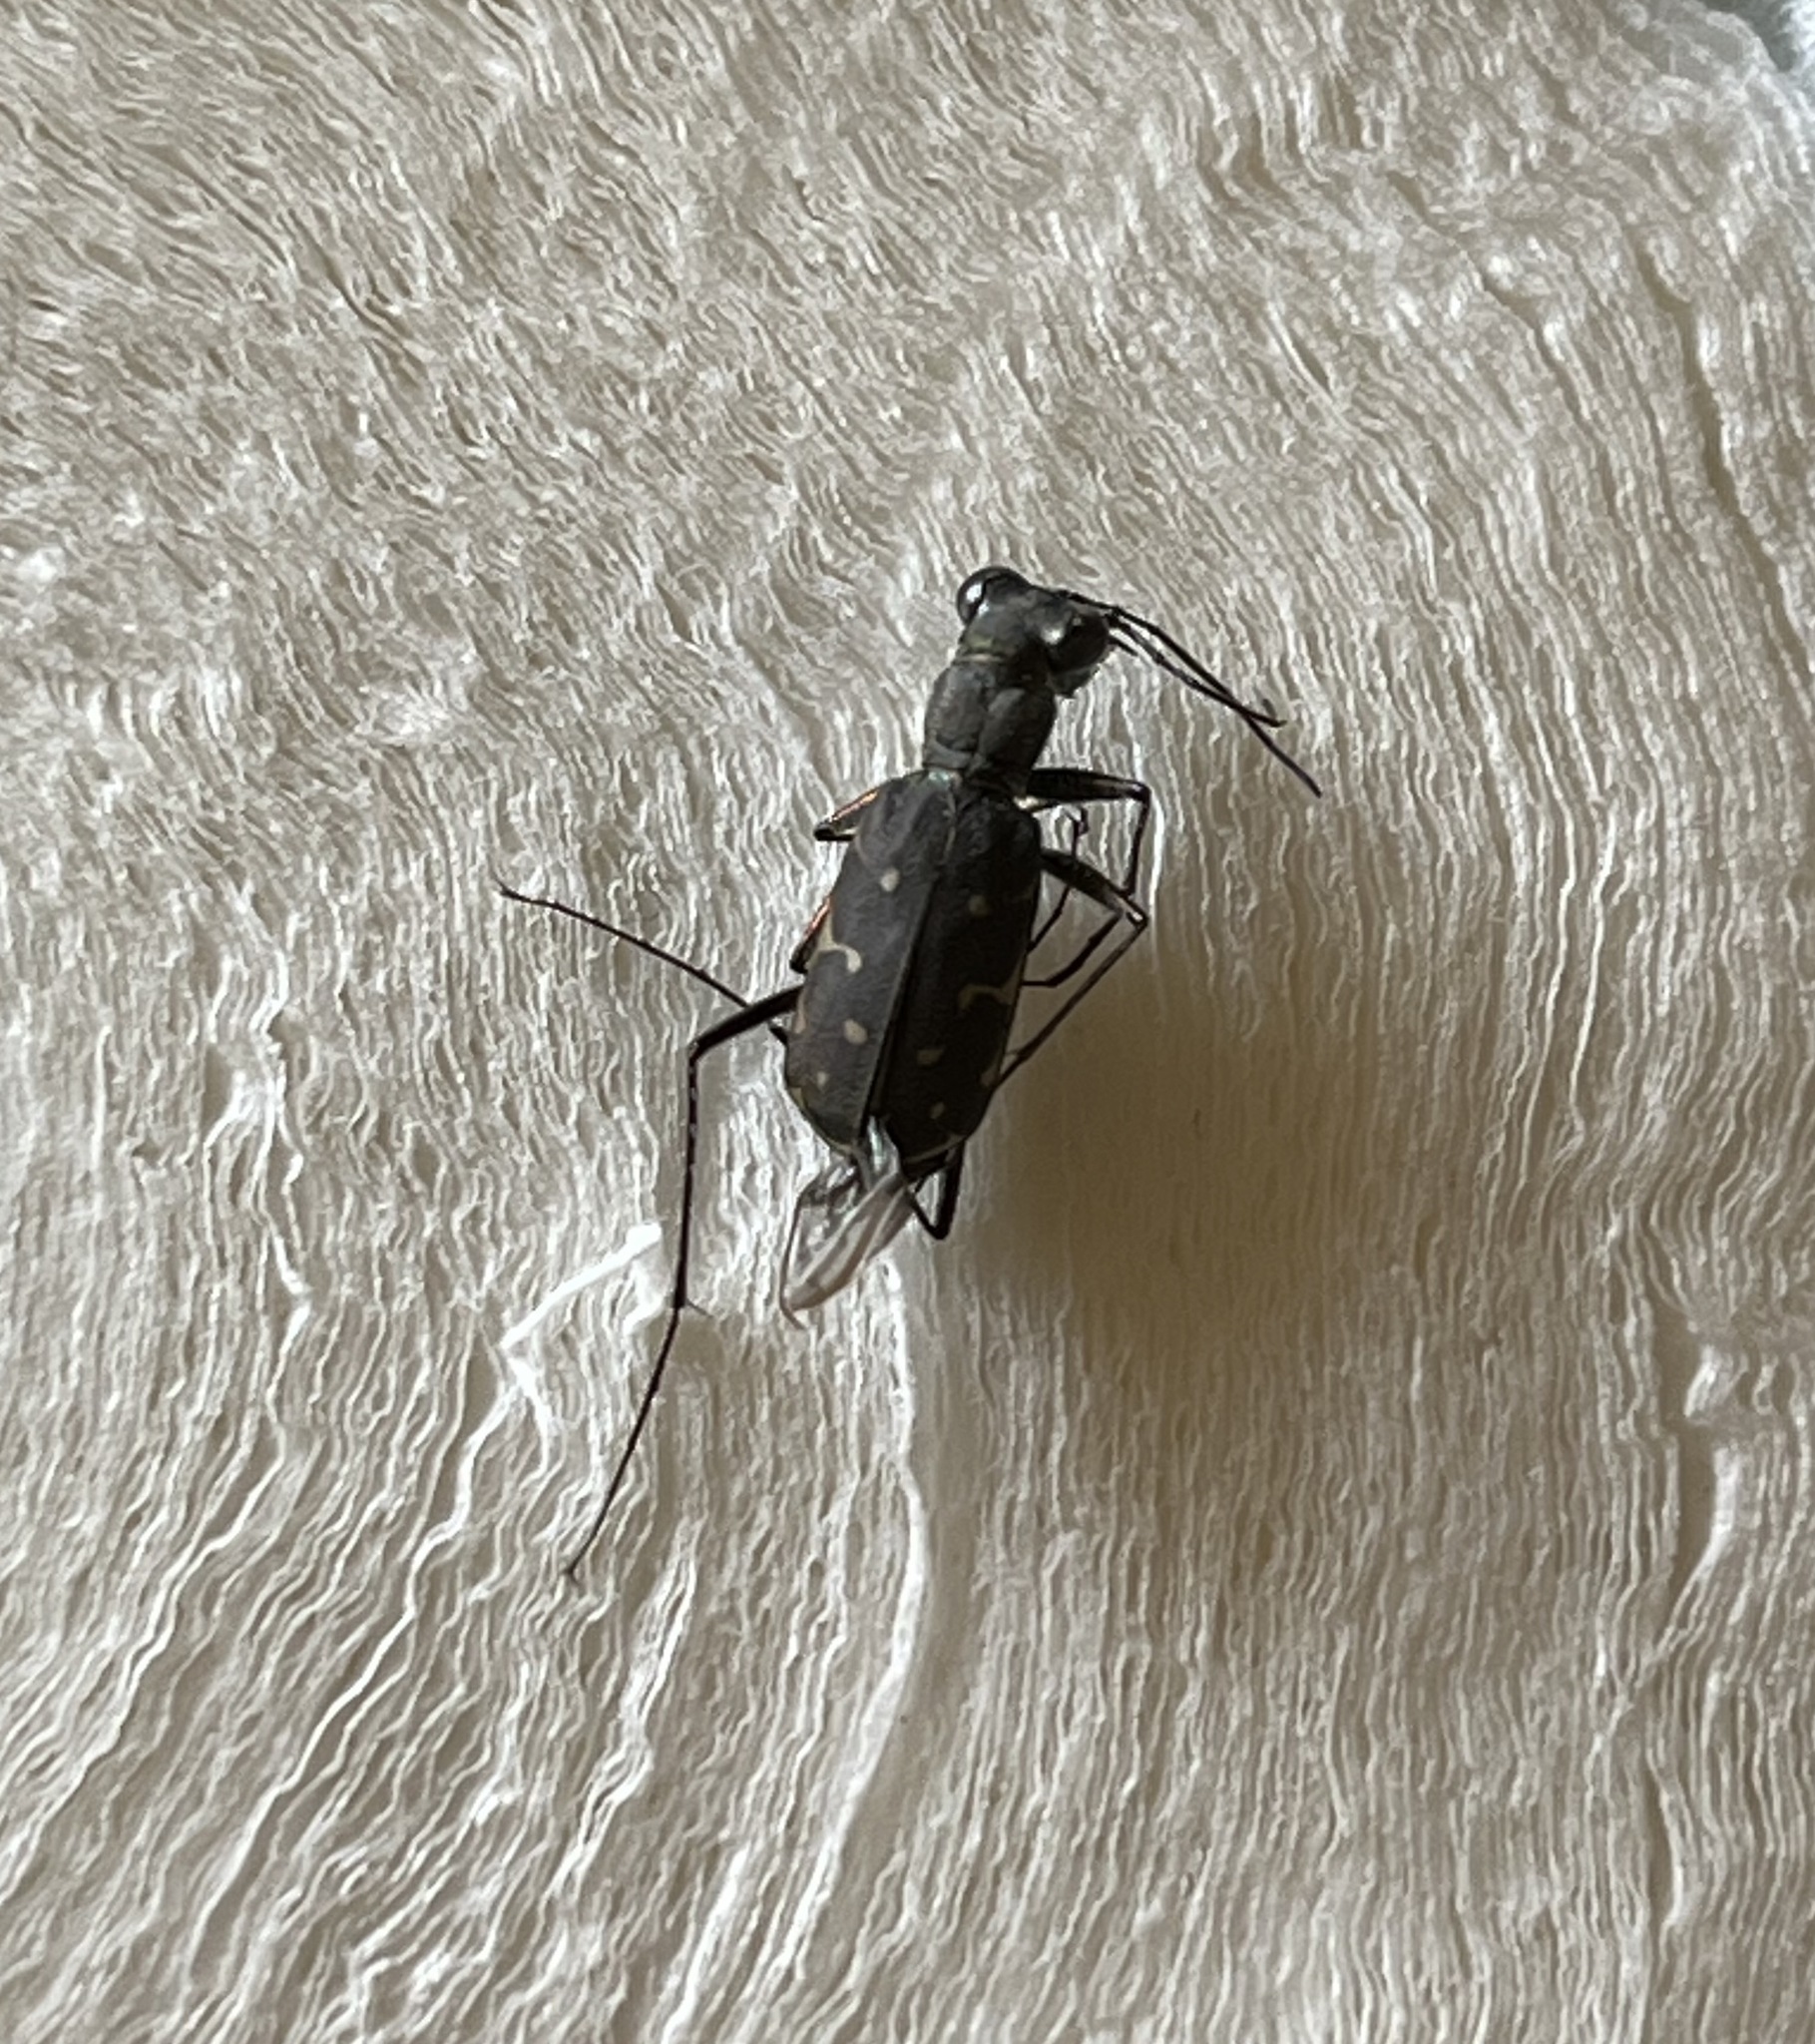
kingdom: Animalia
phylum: Arthropoda
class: Insecta
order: Coleoptera
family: Carabidae
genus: Myriochila
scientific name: Myriochila melancholica
